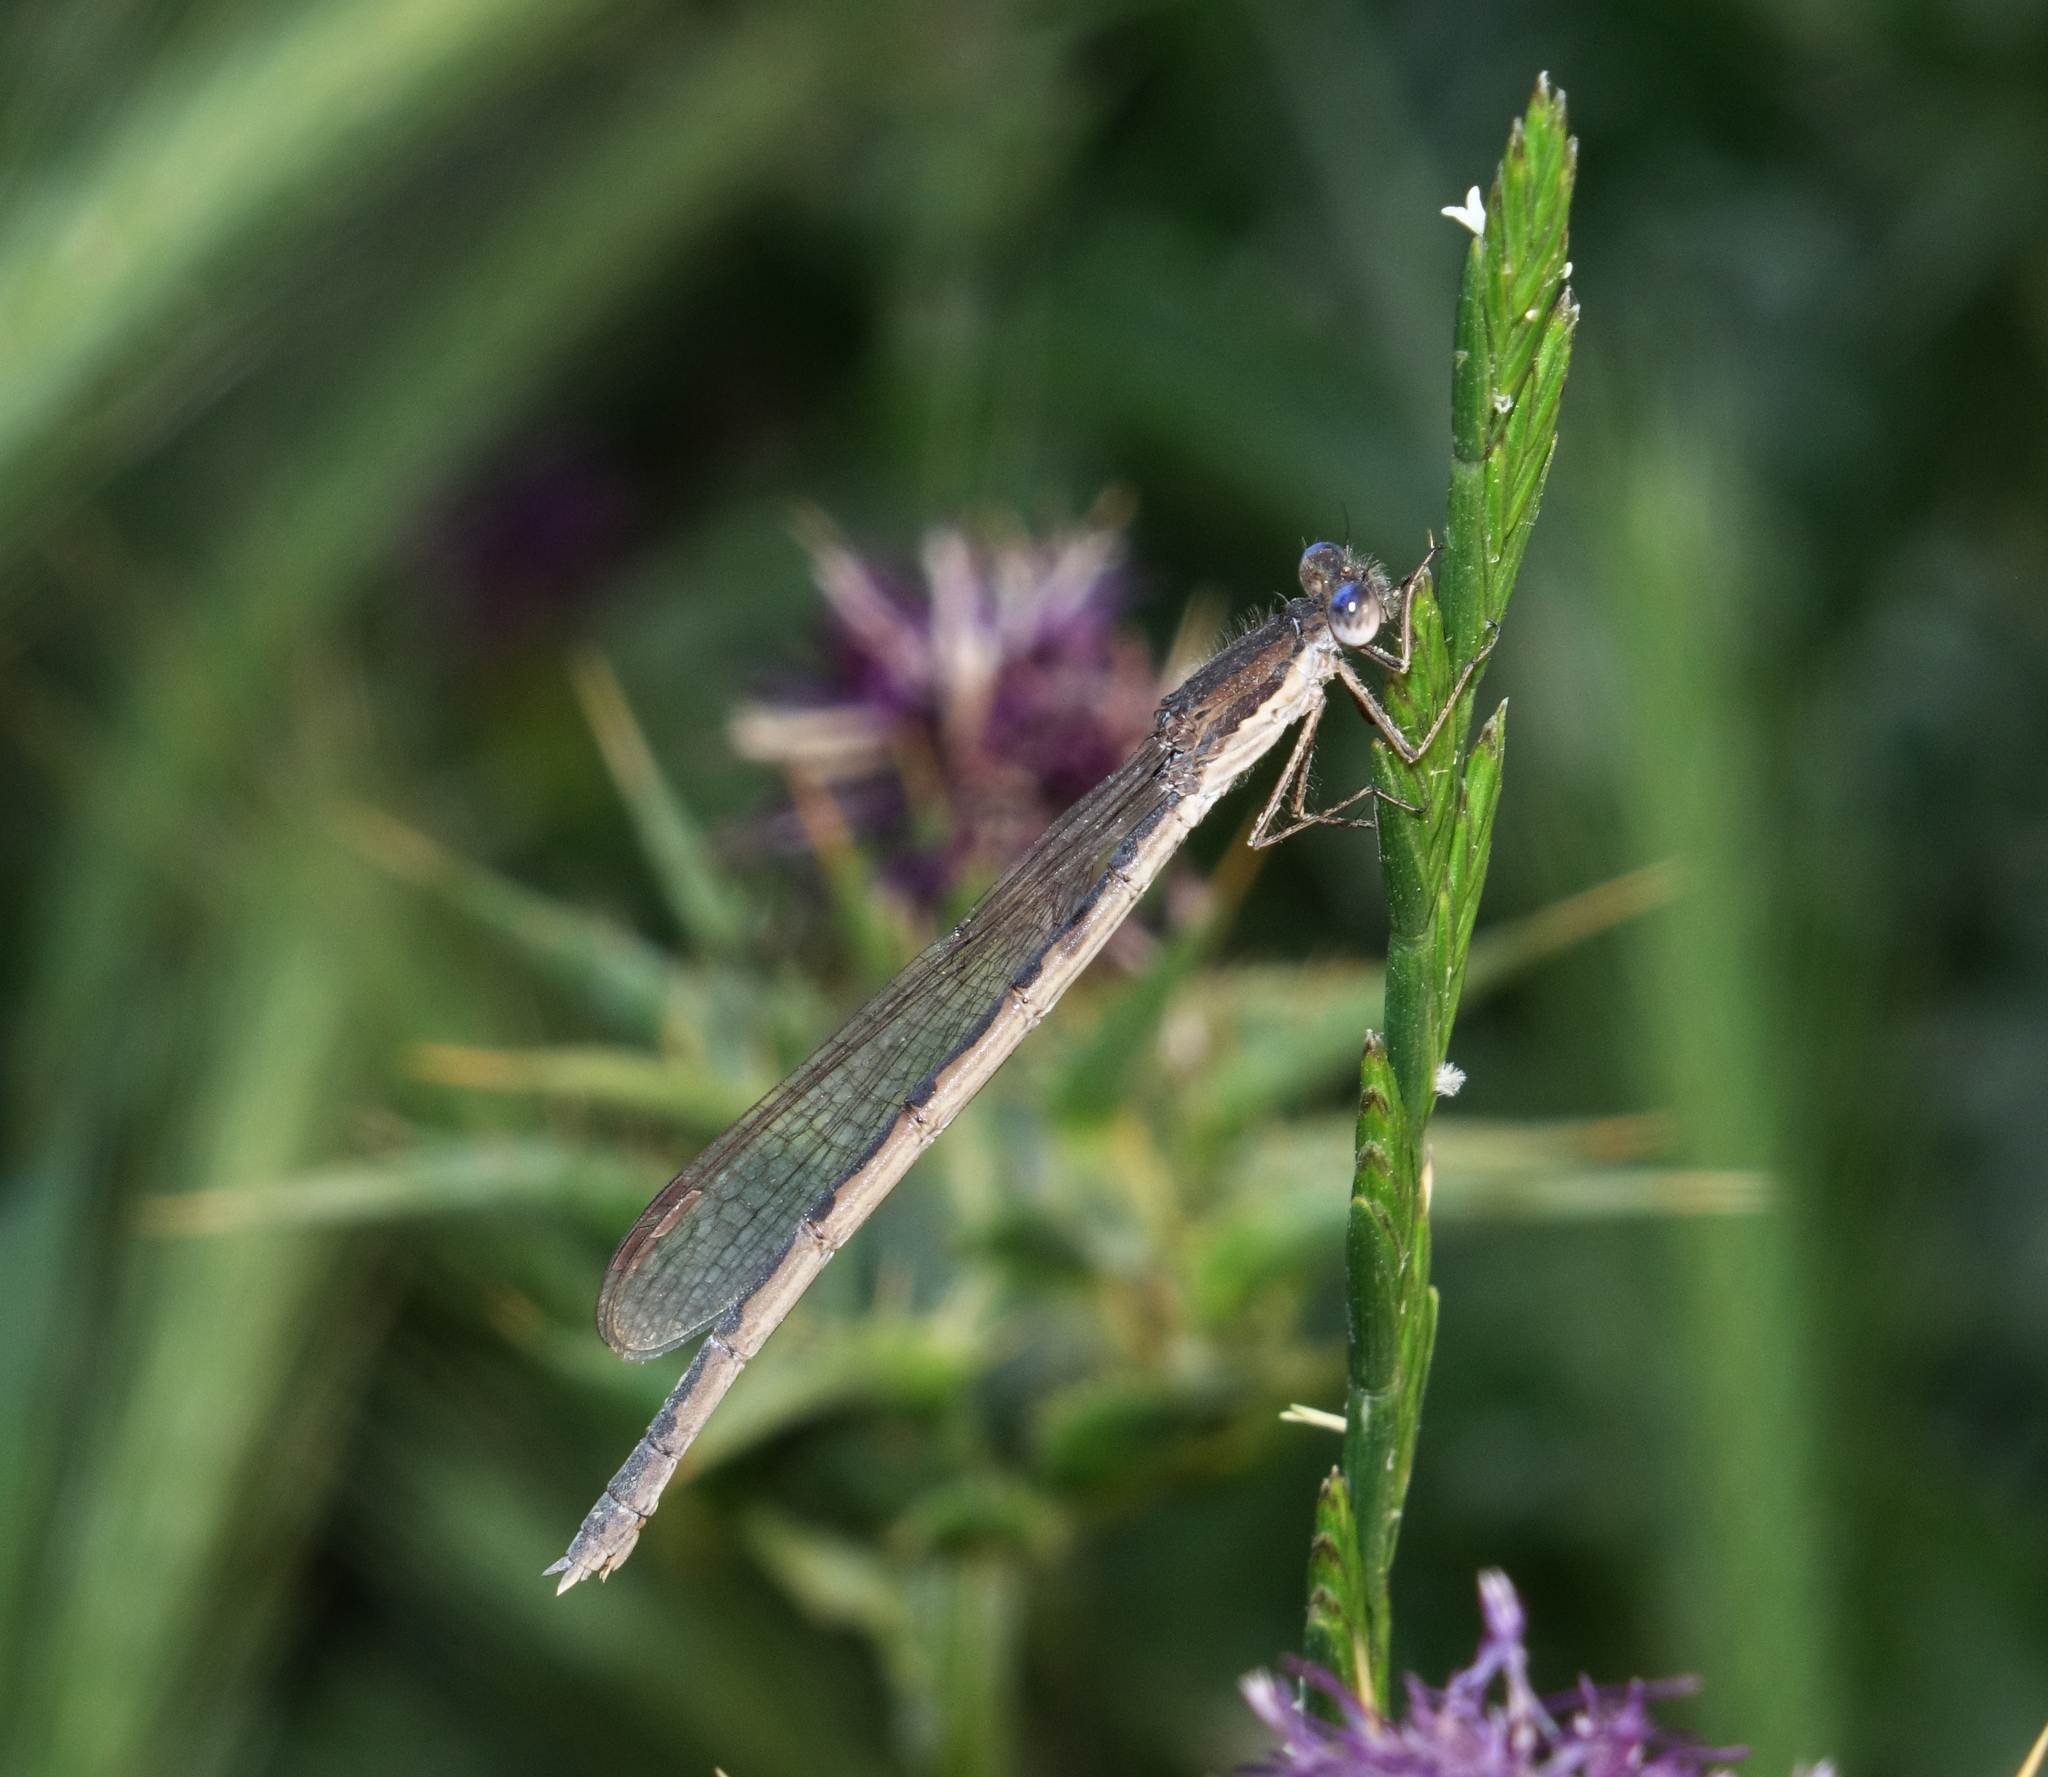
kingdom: Animalia
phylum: Arthropoda
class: Insecta
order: Odonata
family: Lestidae
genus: Sympecma
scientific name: Sympecma fusca
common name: Common winter damsel
